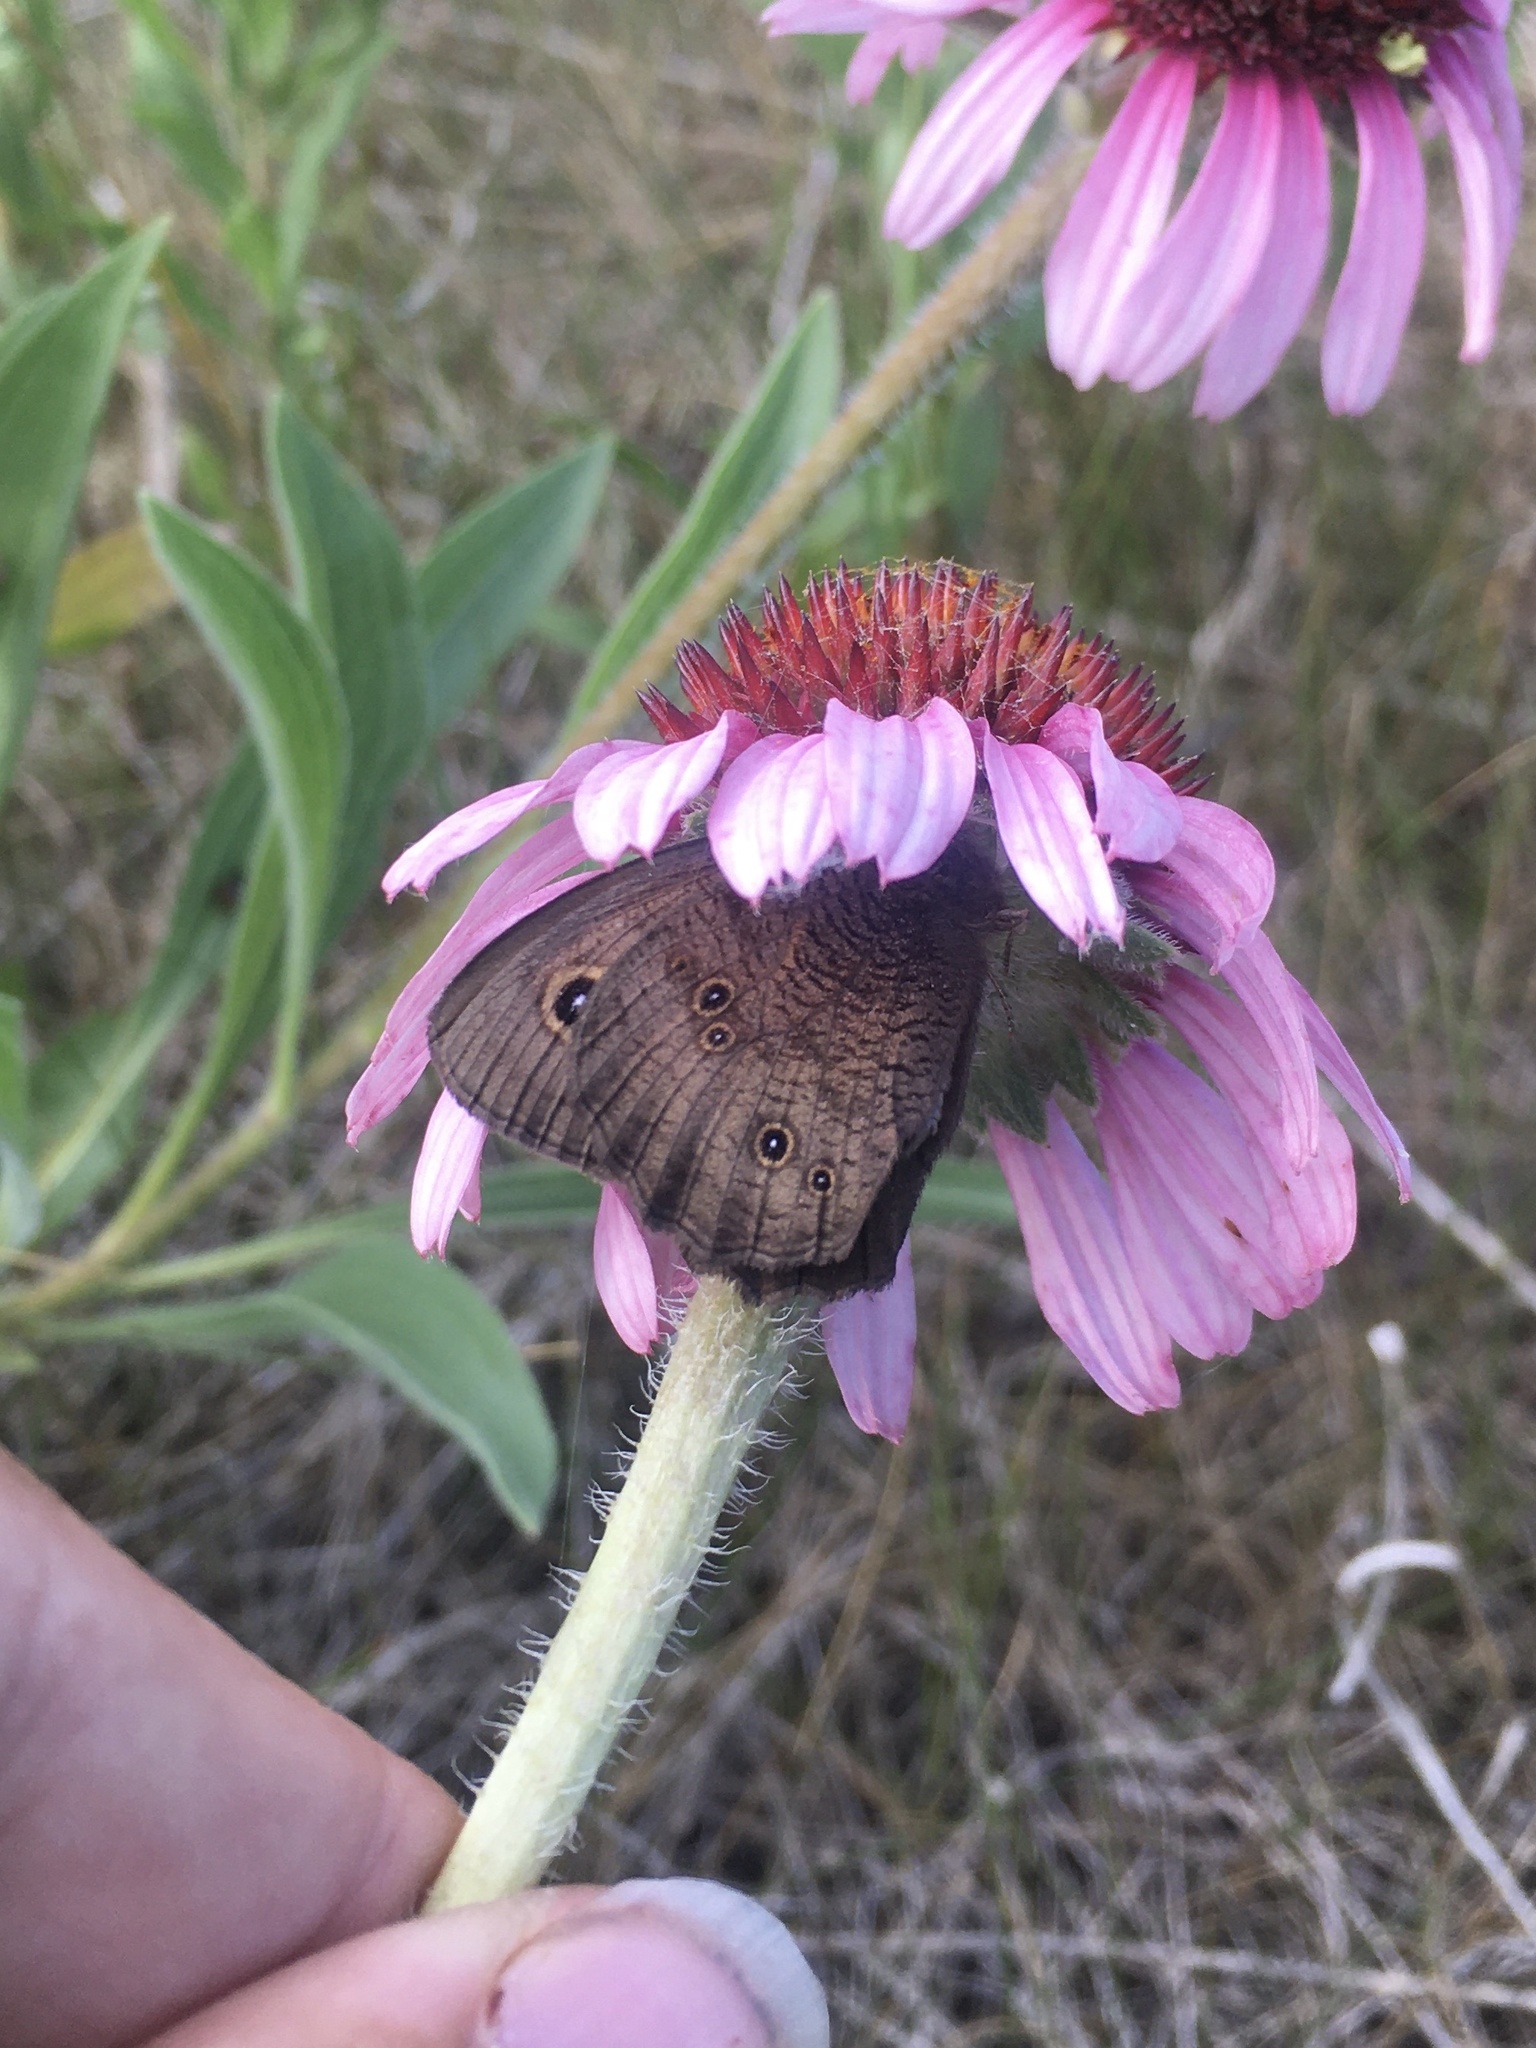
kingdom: Animalia
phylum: Arthropoda
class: Insecta
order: Lepidoptera
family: Nymphalidae
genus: Cercyonis
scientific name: Cercyonis pegala
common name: Common wood-nymph
